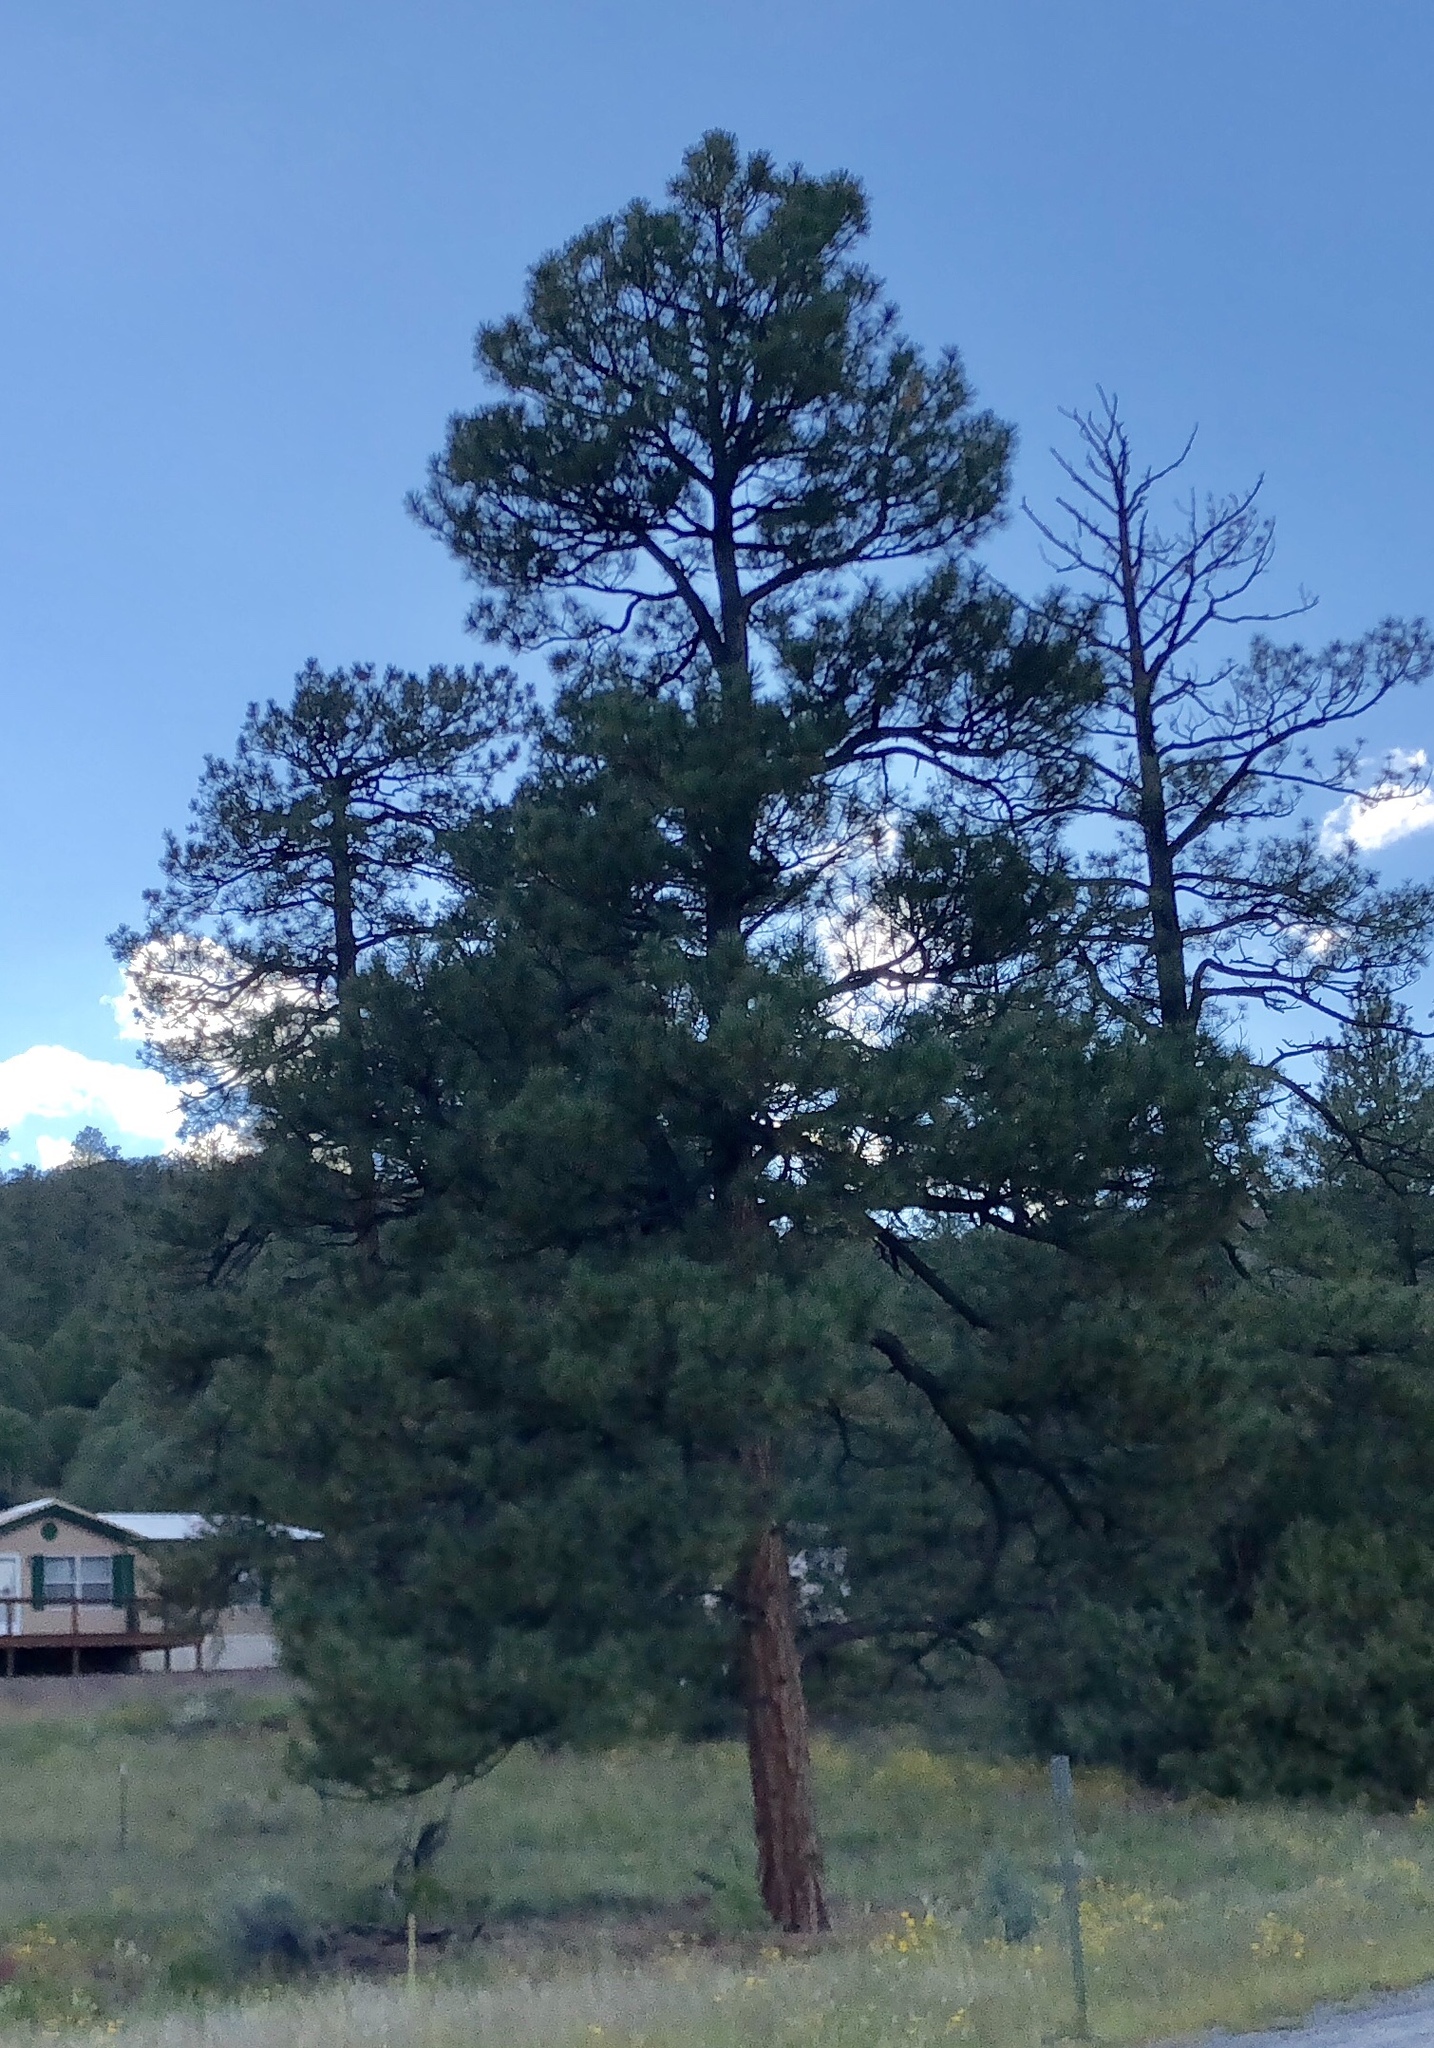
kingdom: Plantae
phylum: Tracheophyta
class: Pinopsida
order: Pinales
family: Pinaceae
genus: Pinus
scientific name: Pinus ponderosa
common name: Western yellow-pine
